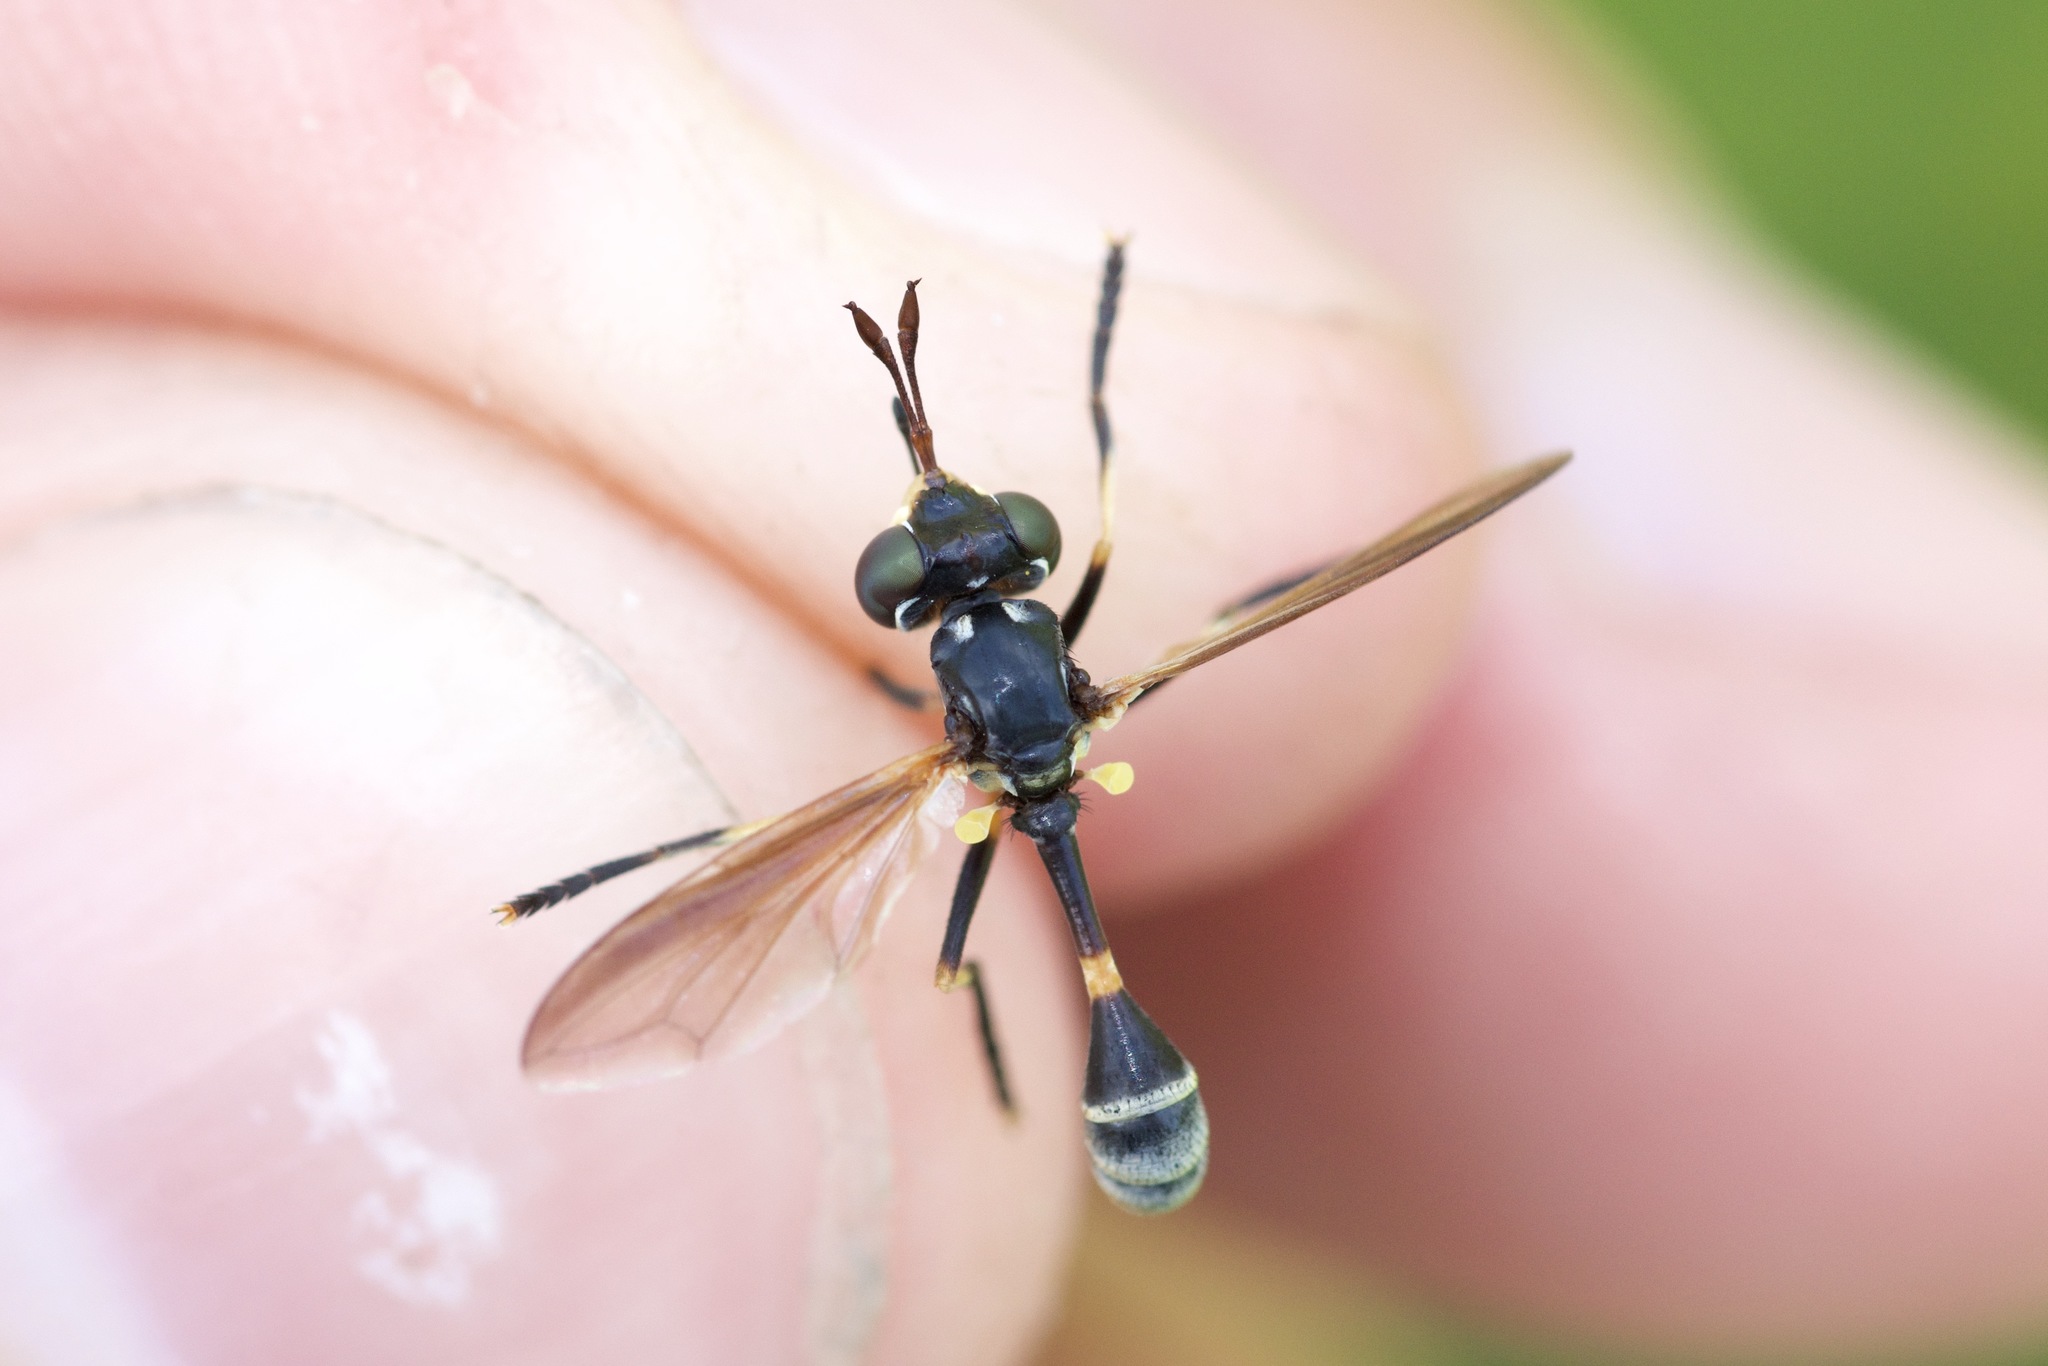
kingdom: Animalia
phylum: Arthropoda
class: Insecta
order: Diptera
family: Conopidae
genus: Physoconops
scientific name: Physoconops obscuripennis
